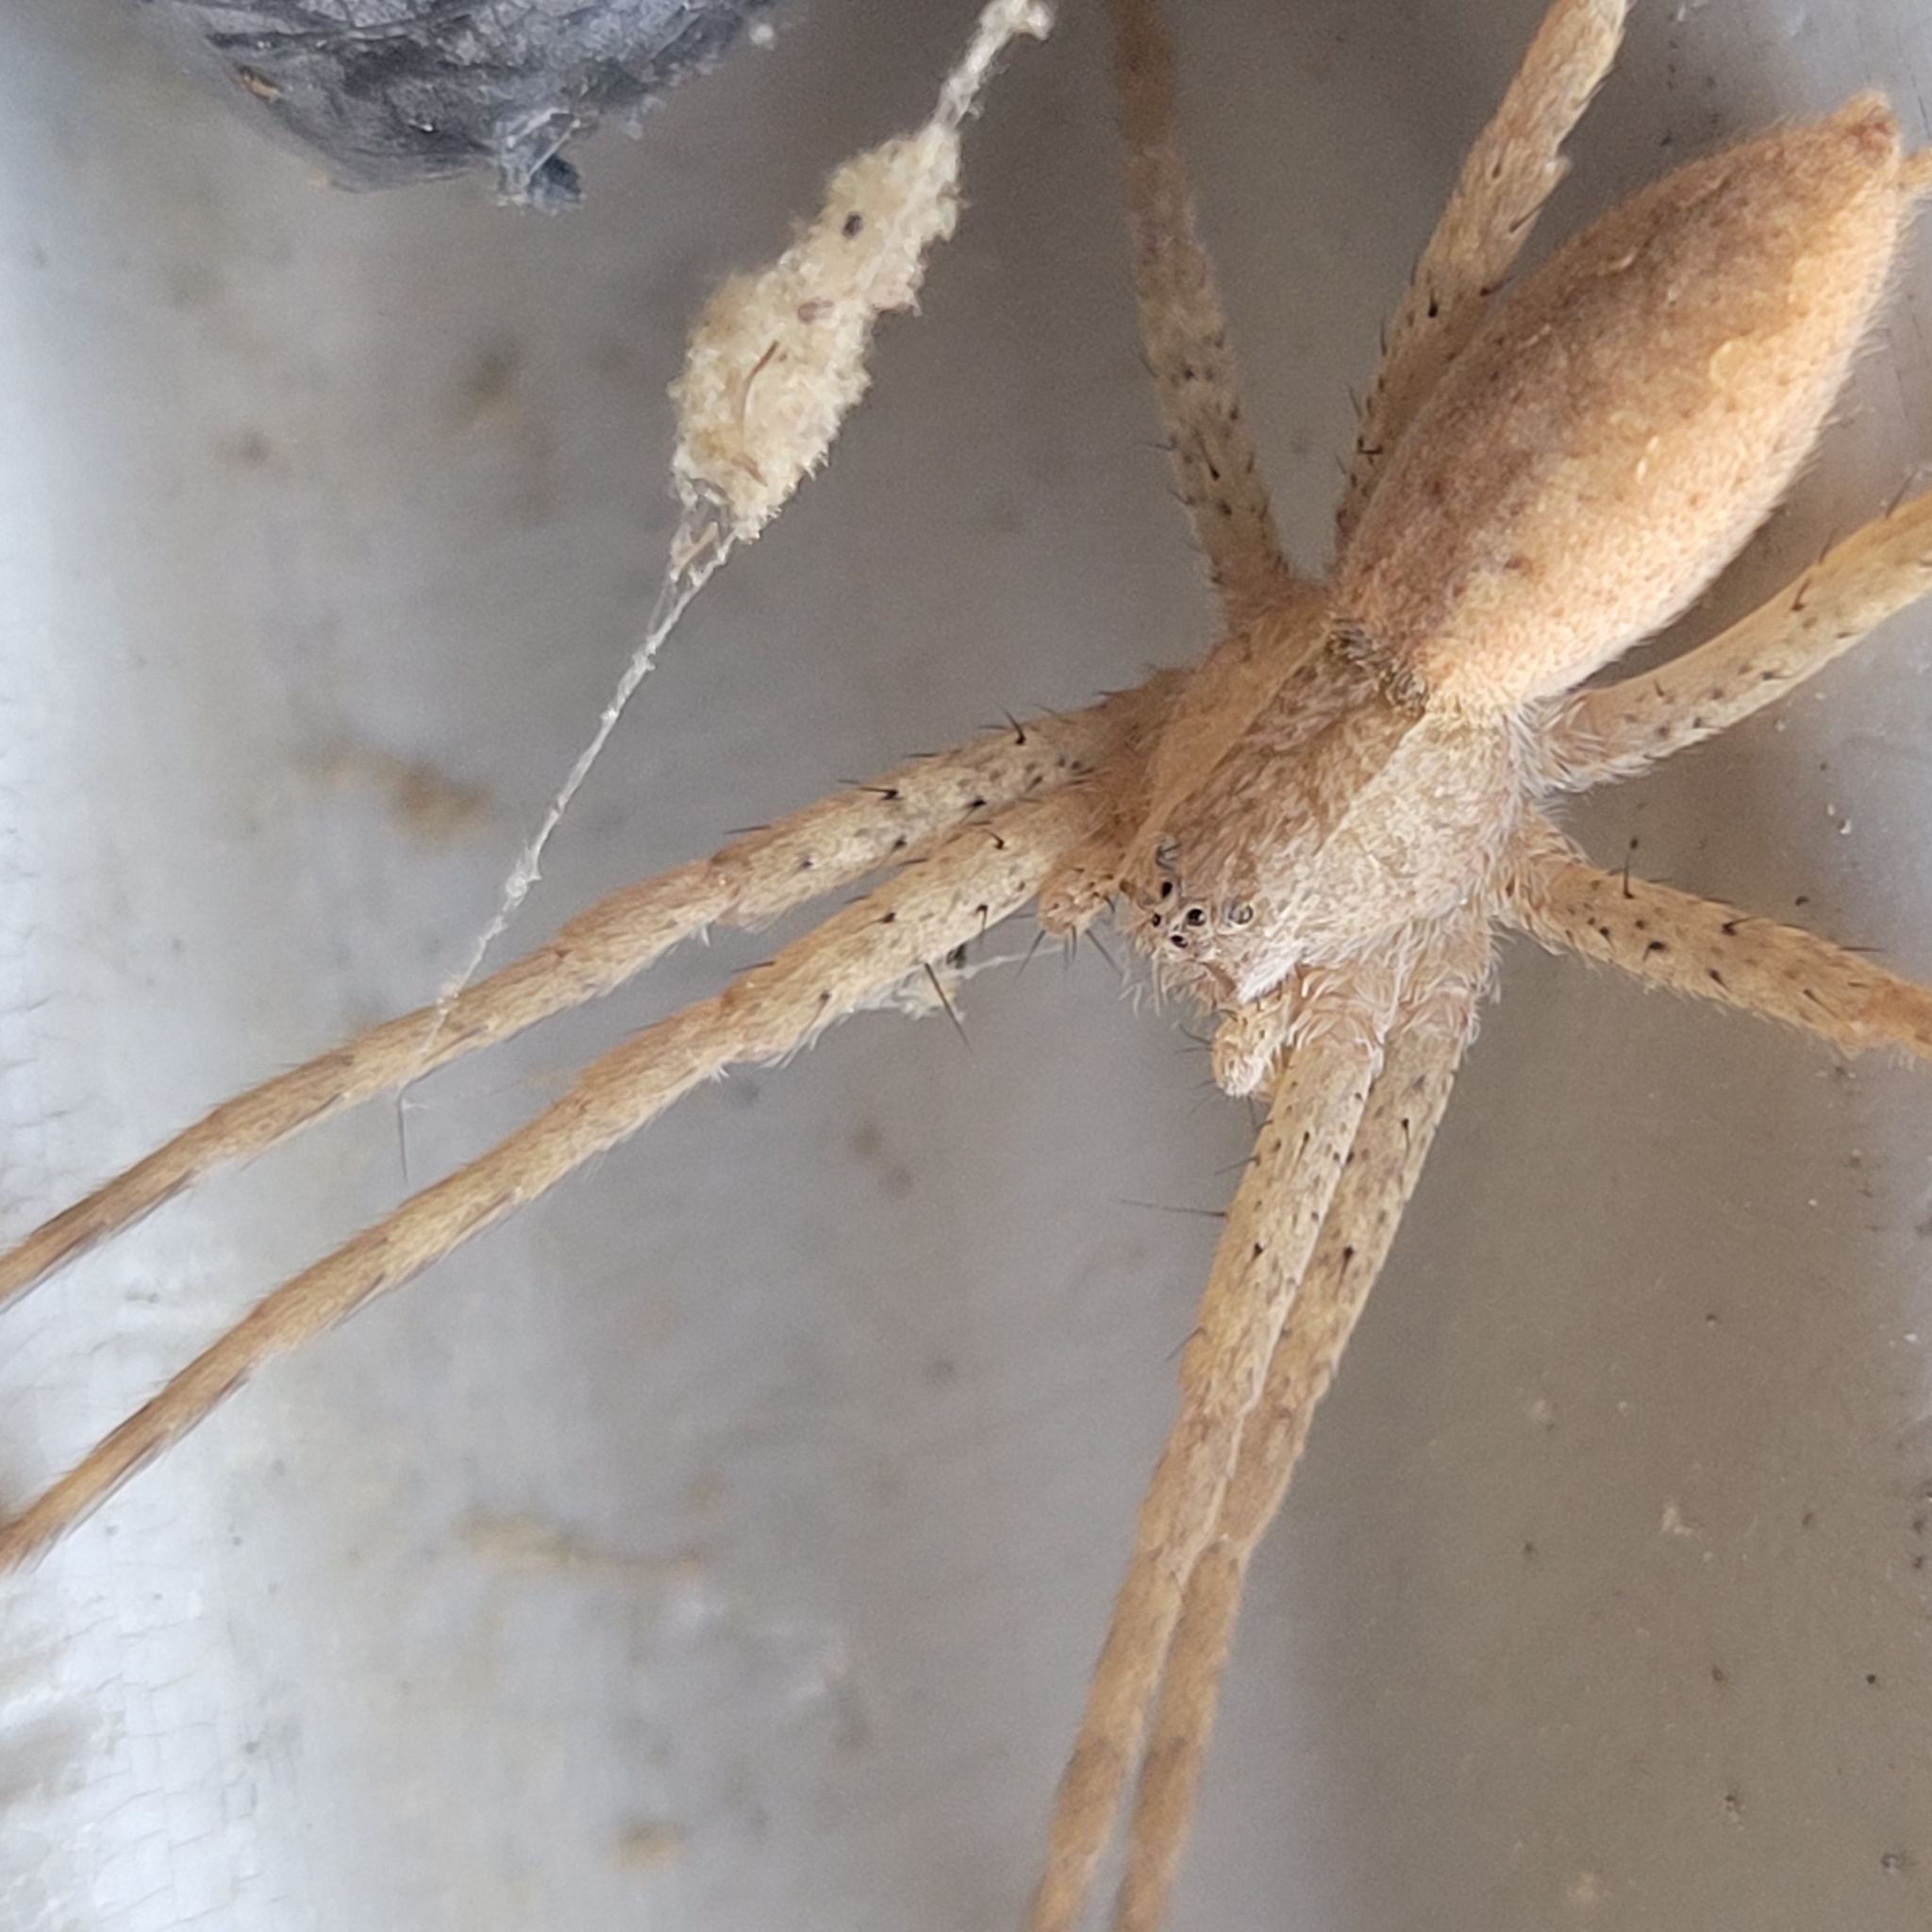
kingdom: Animalia
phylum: Arthropoda
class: Arachnida
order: Araneae
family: Pisauridae
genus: Pisaurina
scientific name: Pisaurina mira
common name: American nursery web spider
